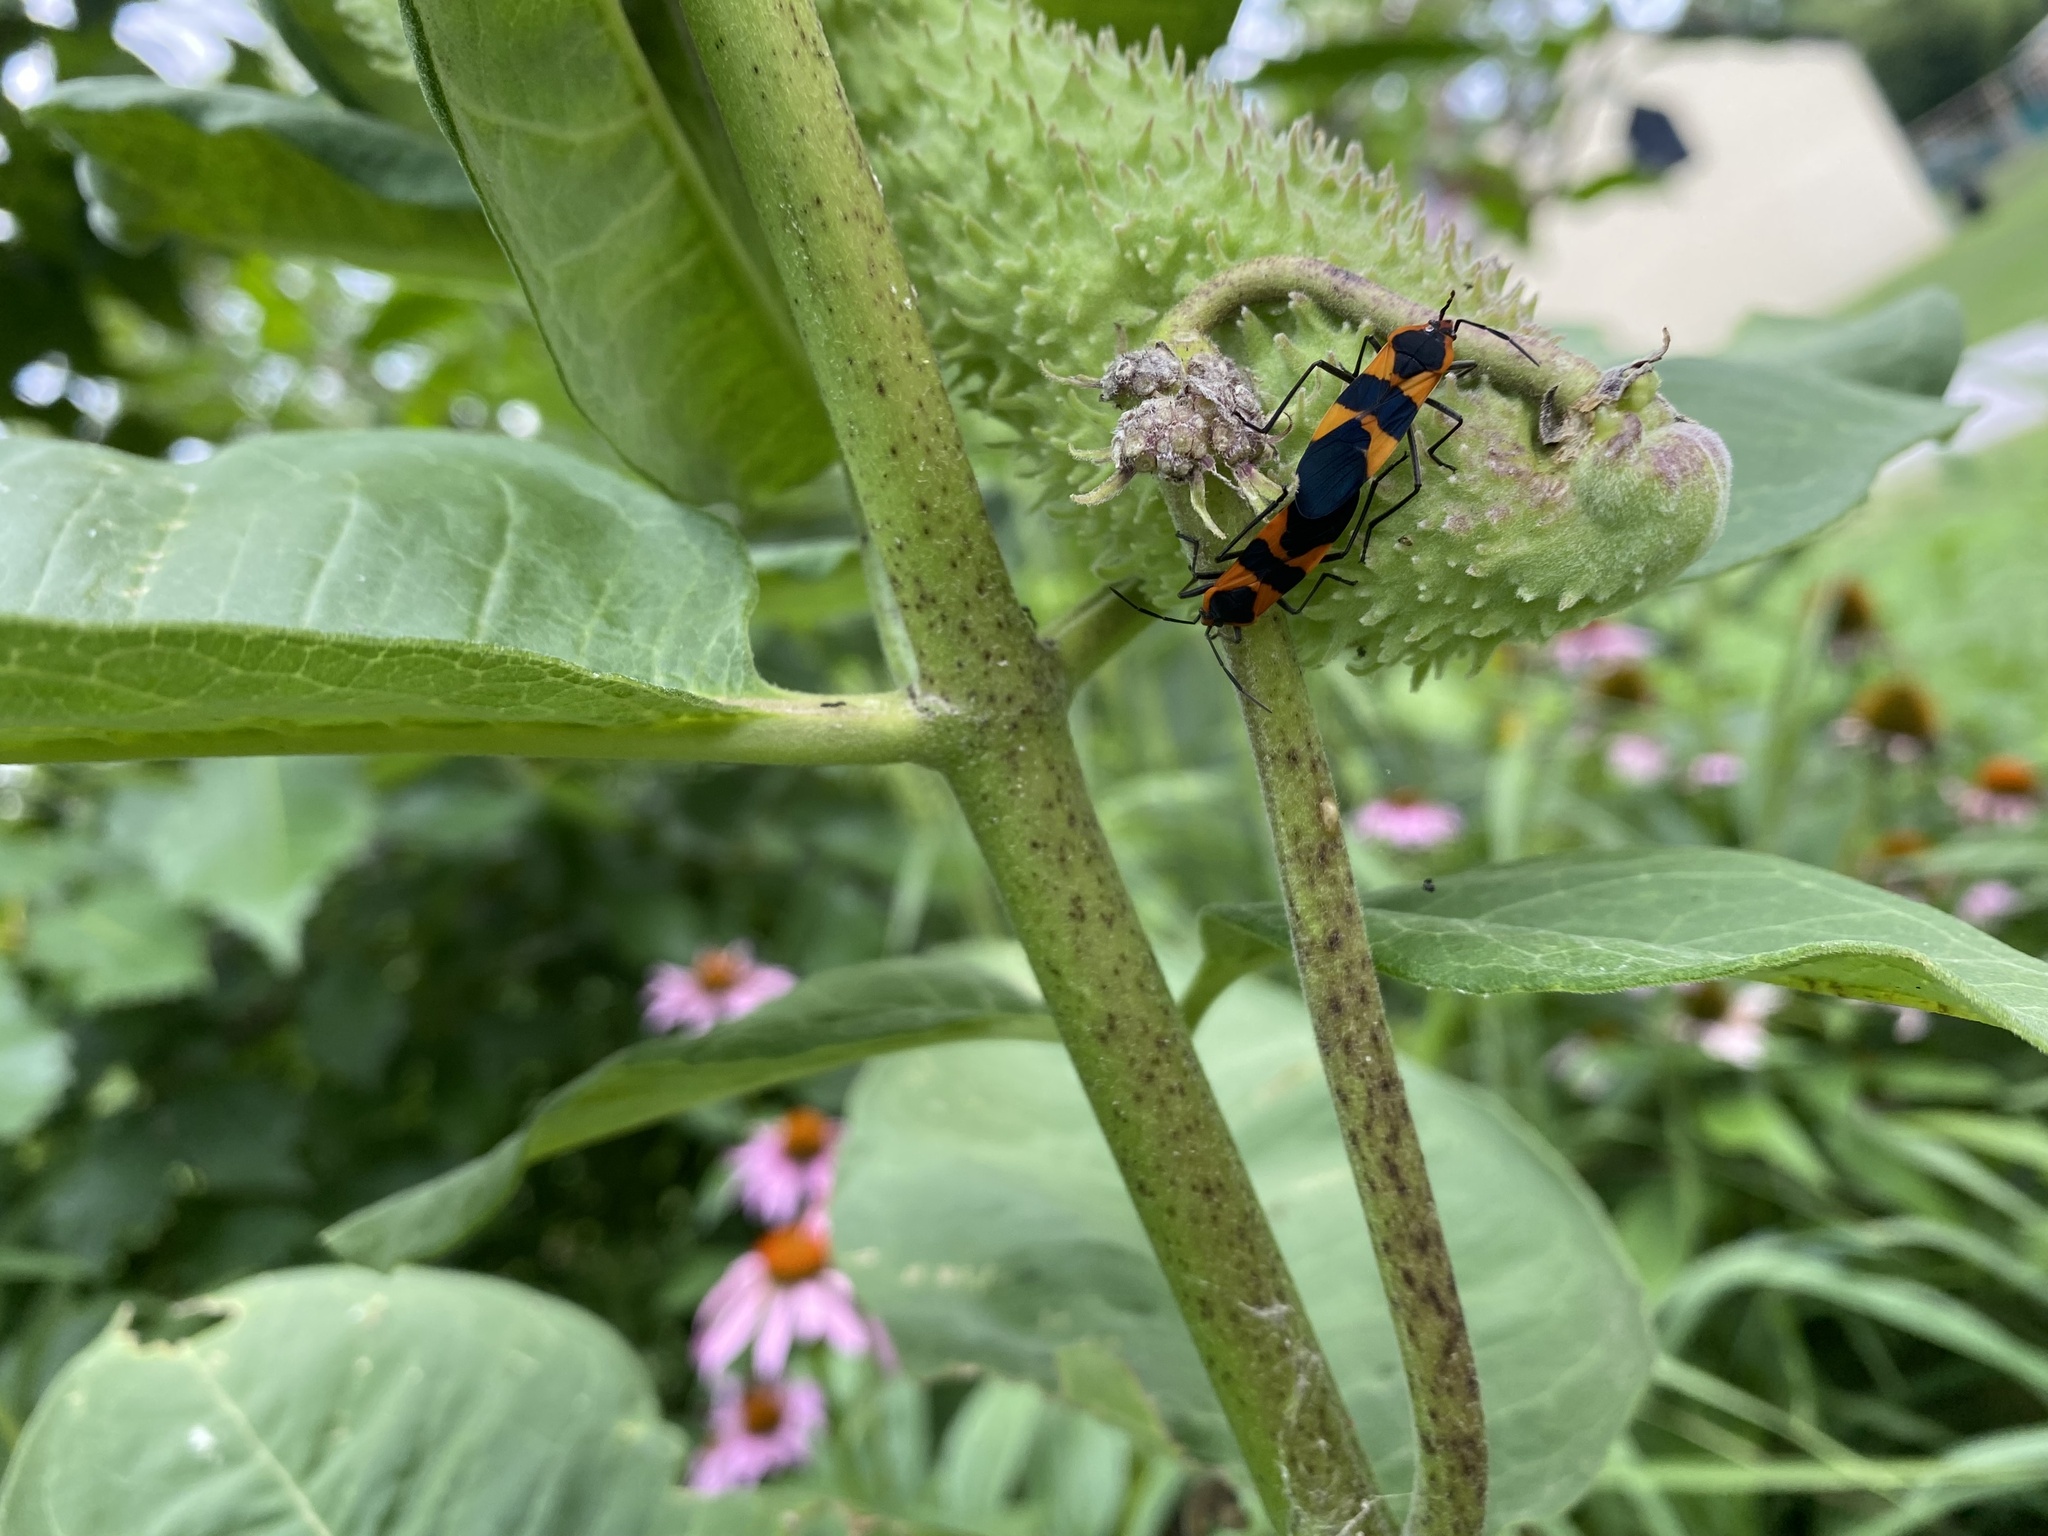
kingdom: Animalia
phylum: Arthropoda
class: Insecta
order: Hemiptera
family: Lygaeidae
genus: Oncopeltus
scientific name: Oncopeltus fasciatus
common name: Large milkweed bug
